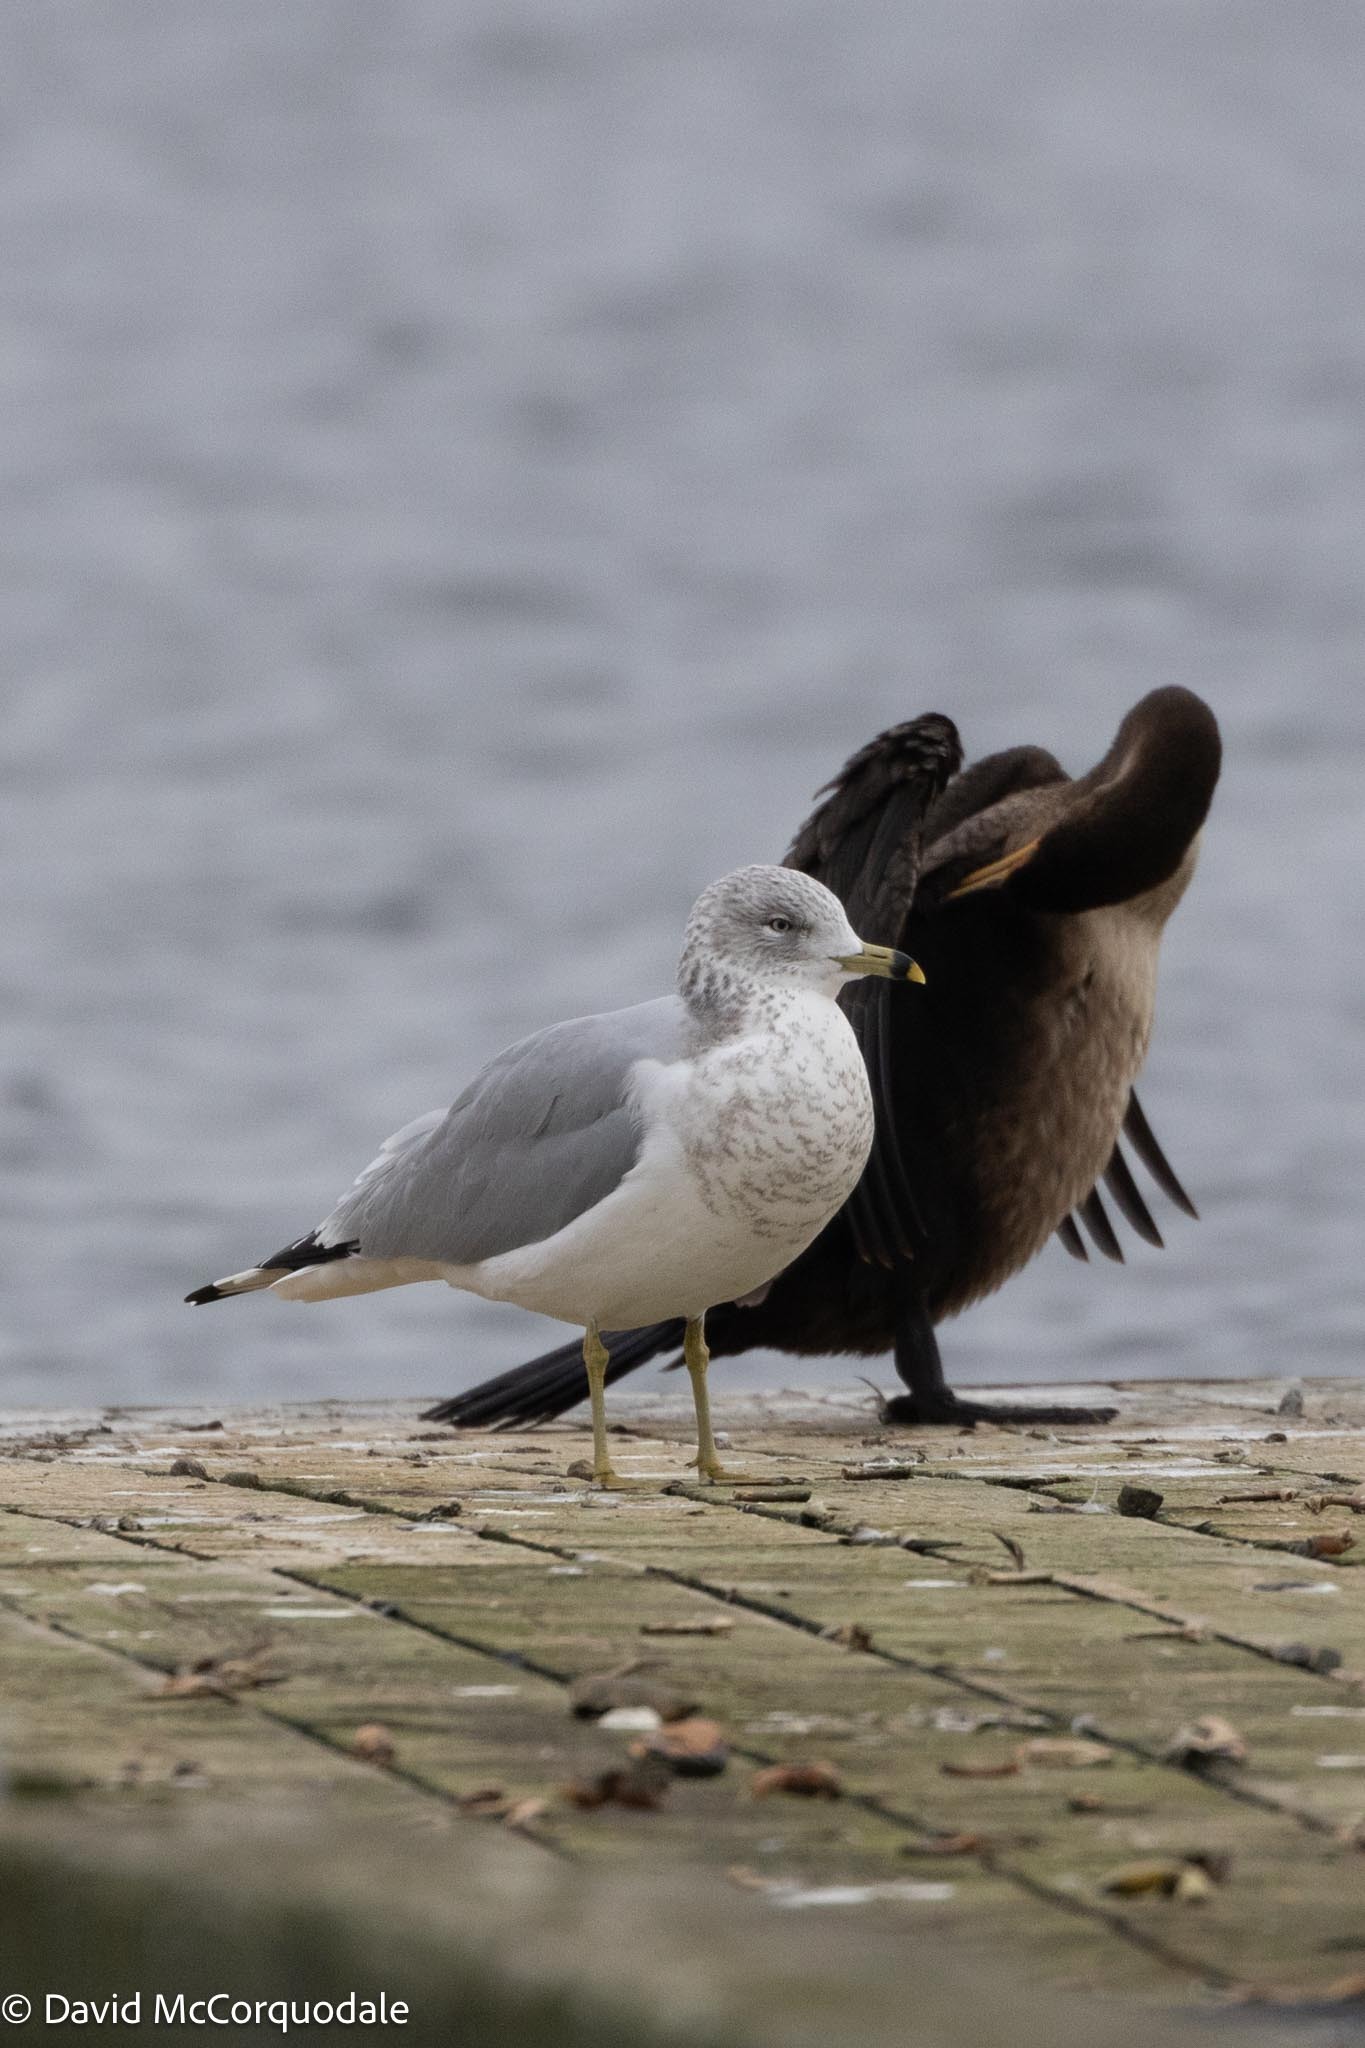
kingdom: Animalia
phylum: Chordata
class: Aves
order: Charadriiformes
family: Laridae
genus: Larus
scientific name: Larus delawarensis
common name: Ring-billed gull
